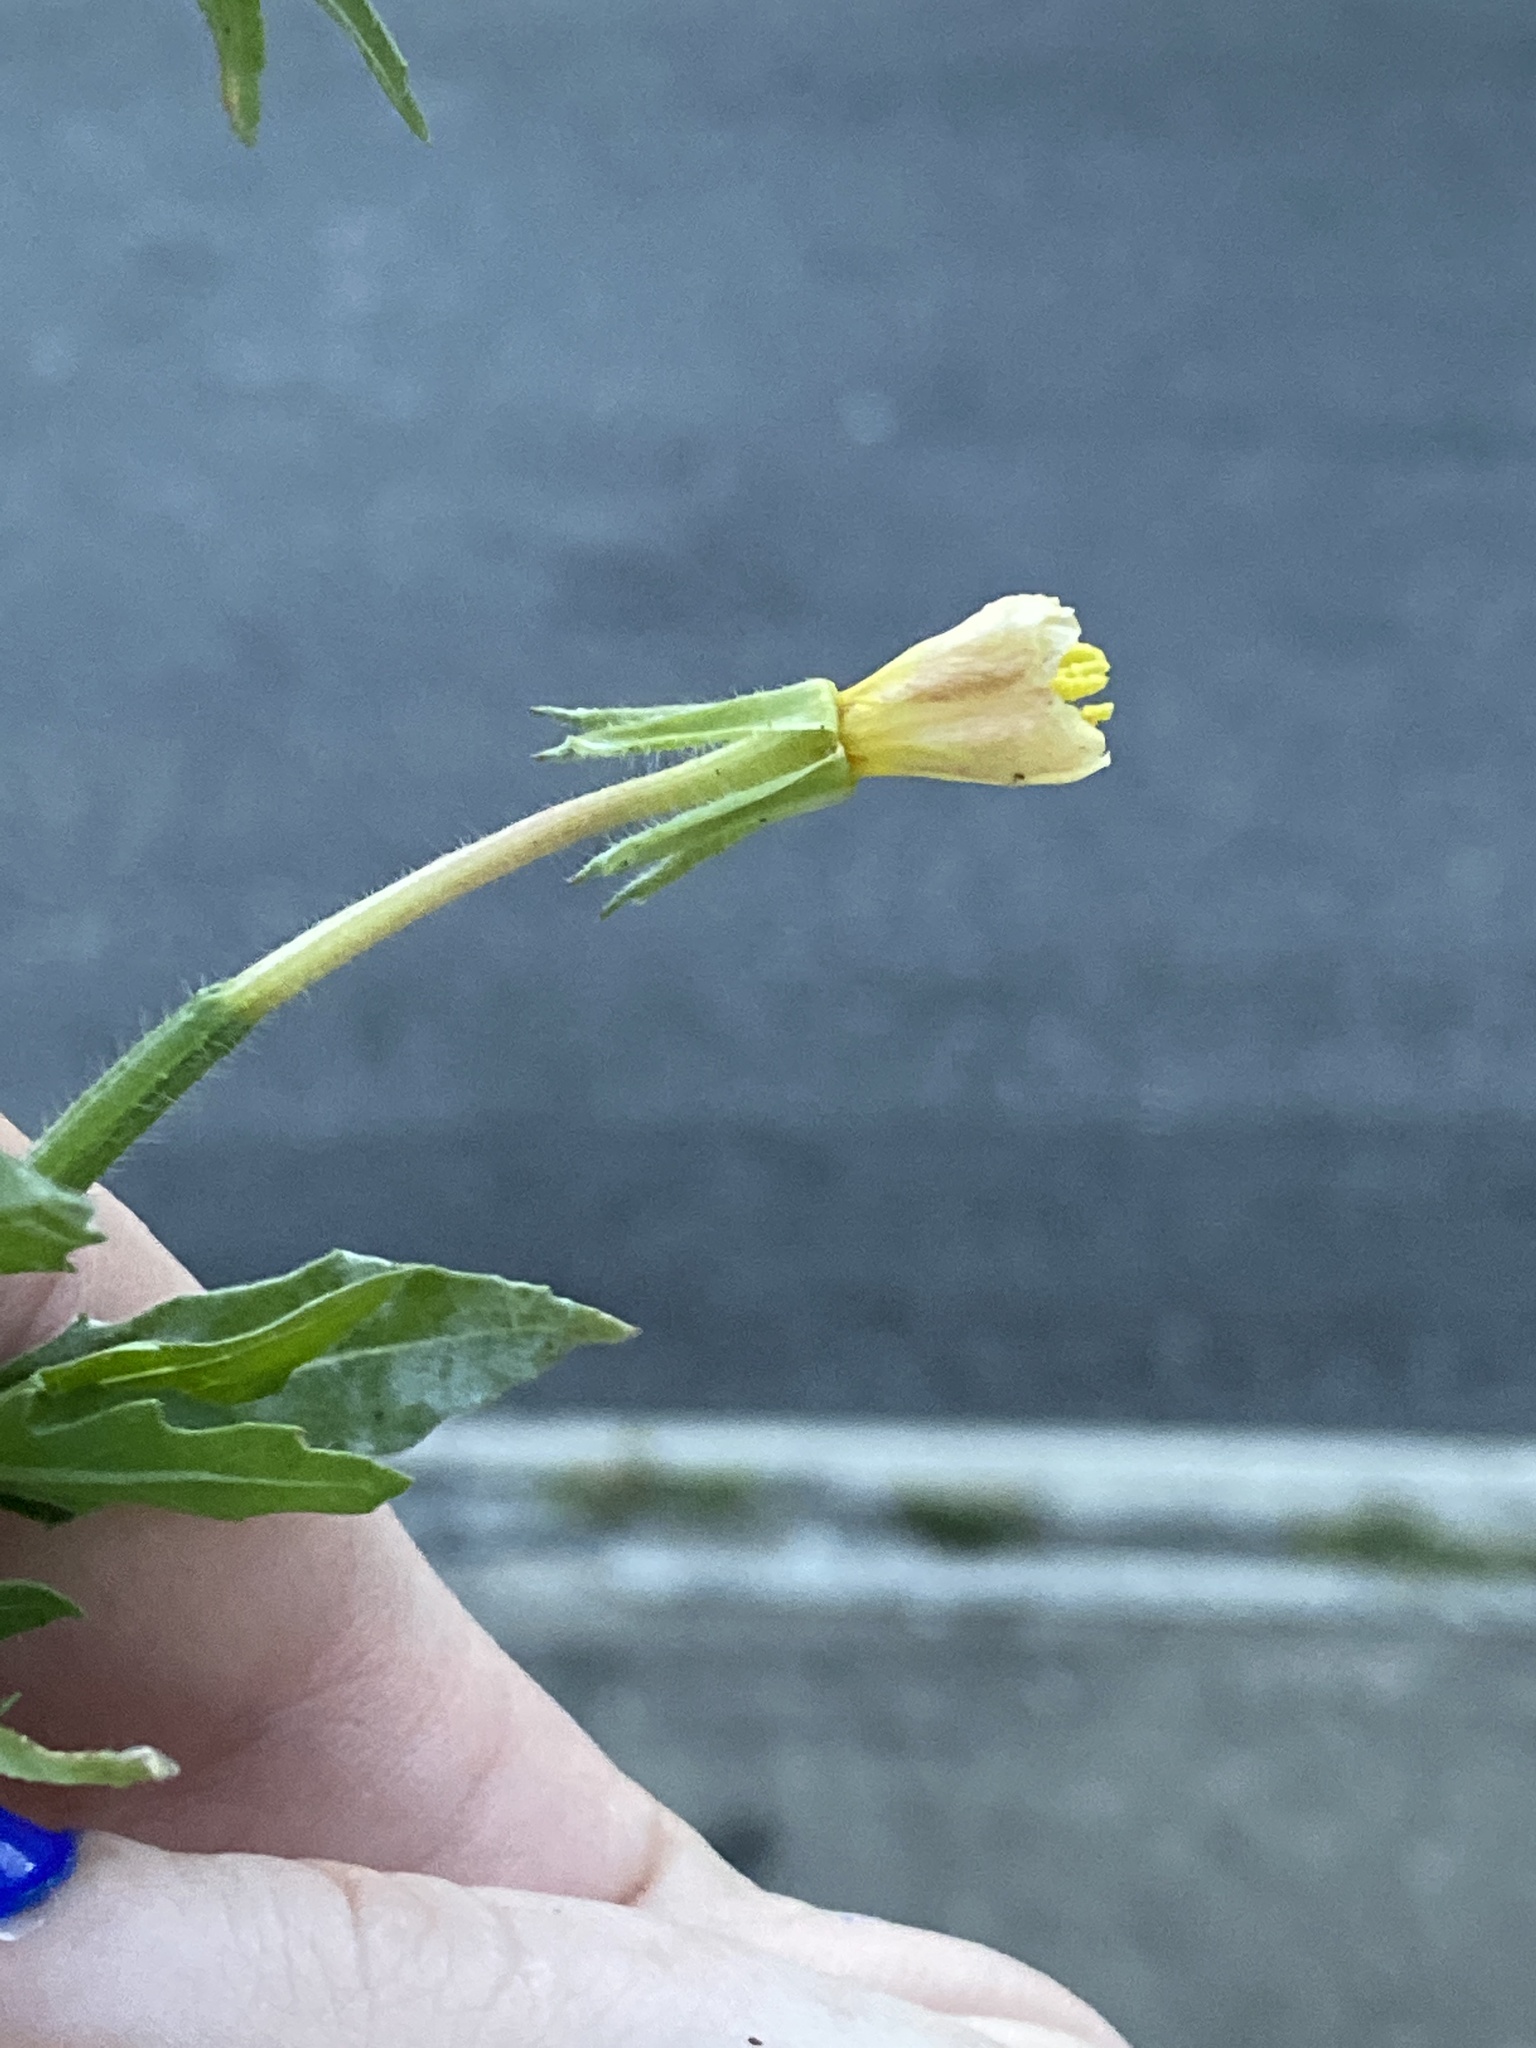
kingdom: Plantae
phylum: Tracheophyta
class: Magnoliopsida
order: Myrtales
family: Onagraceae
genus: Oenothera
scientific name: Oenothera laciniata
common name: Cut-leaved evening-primrose
